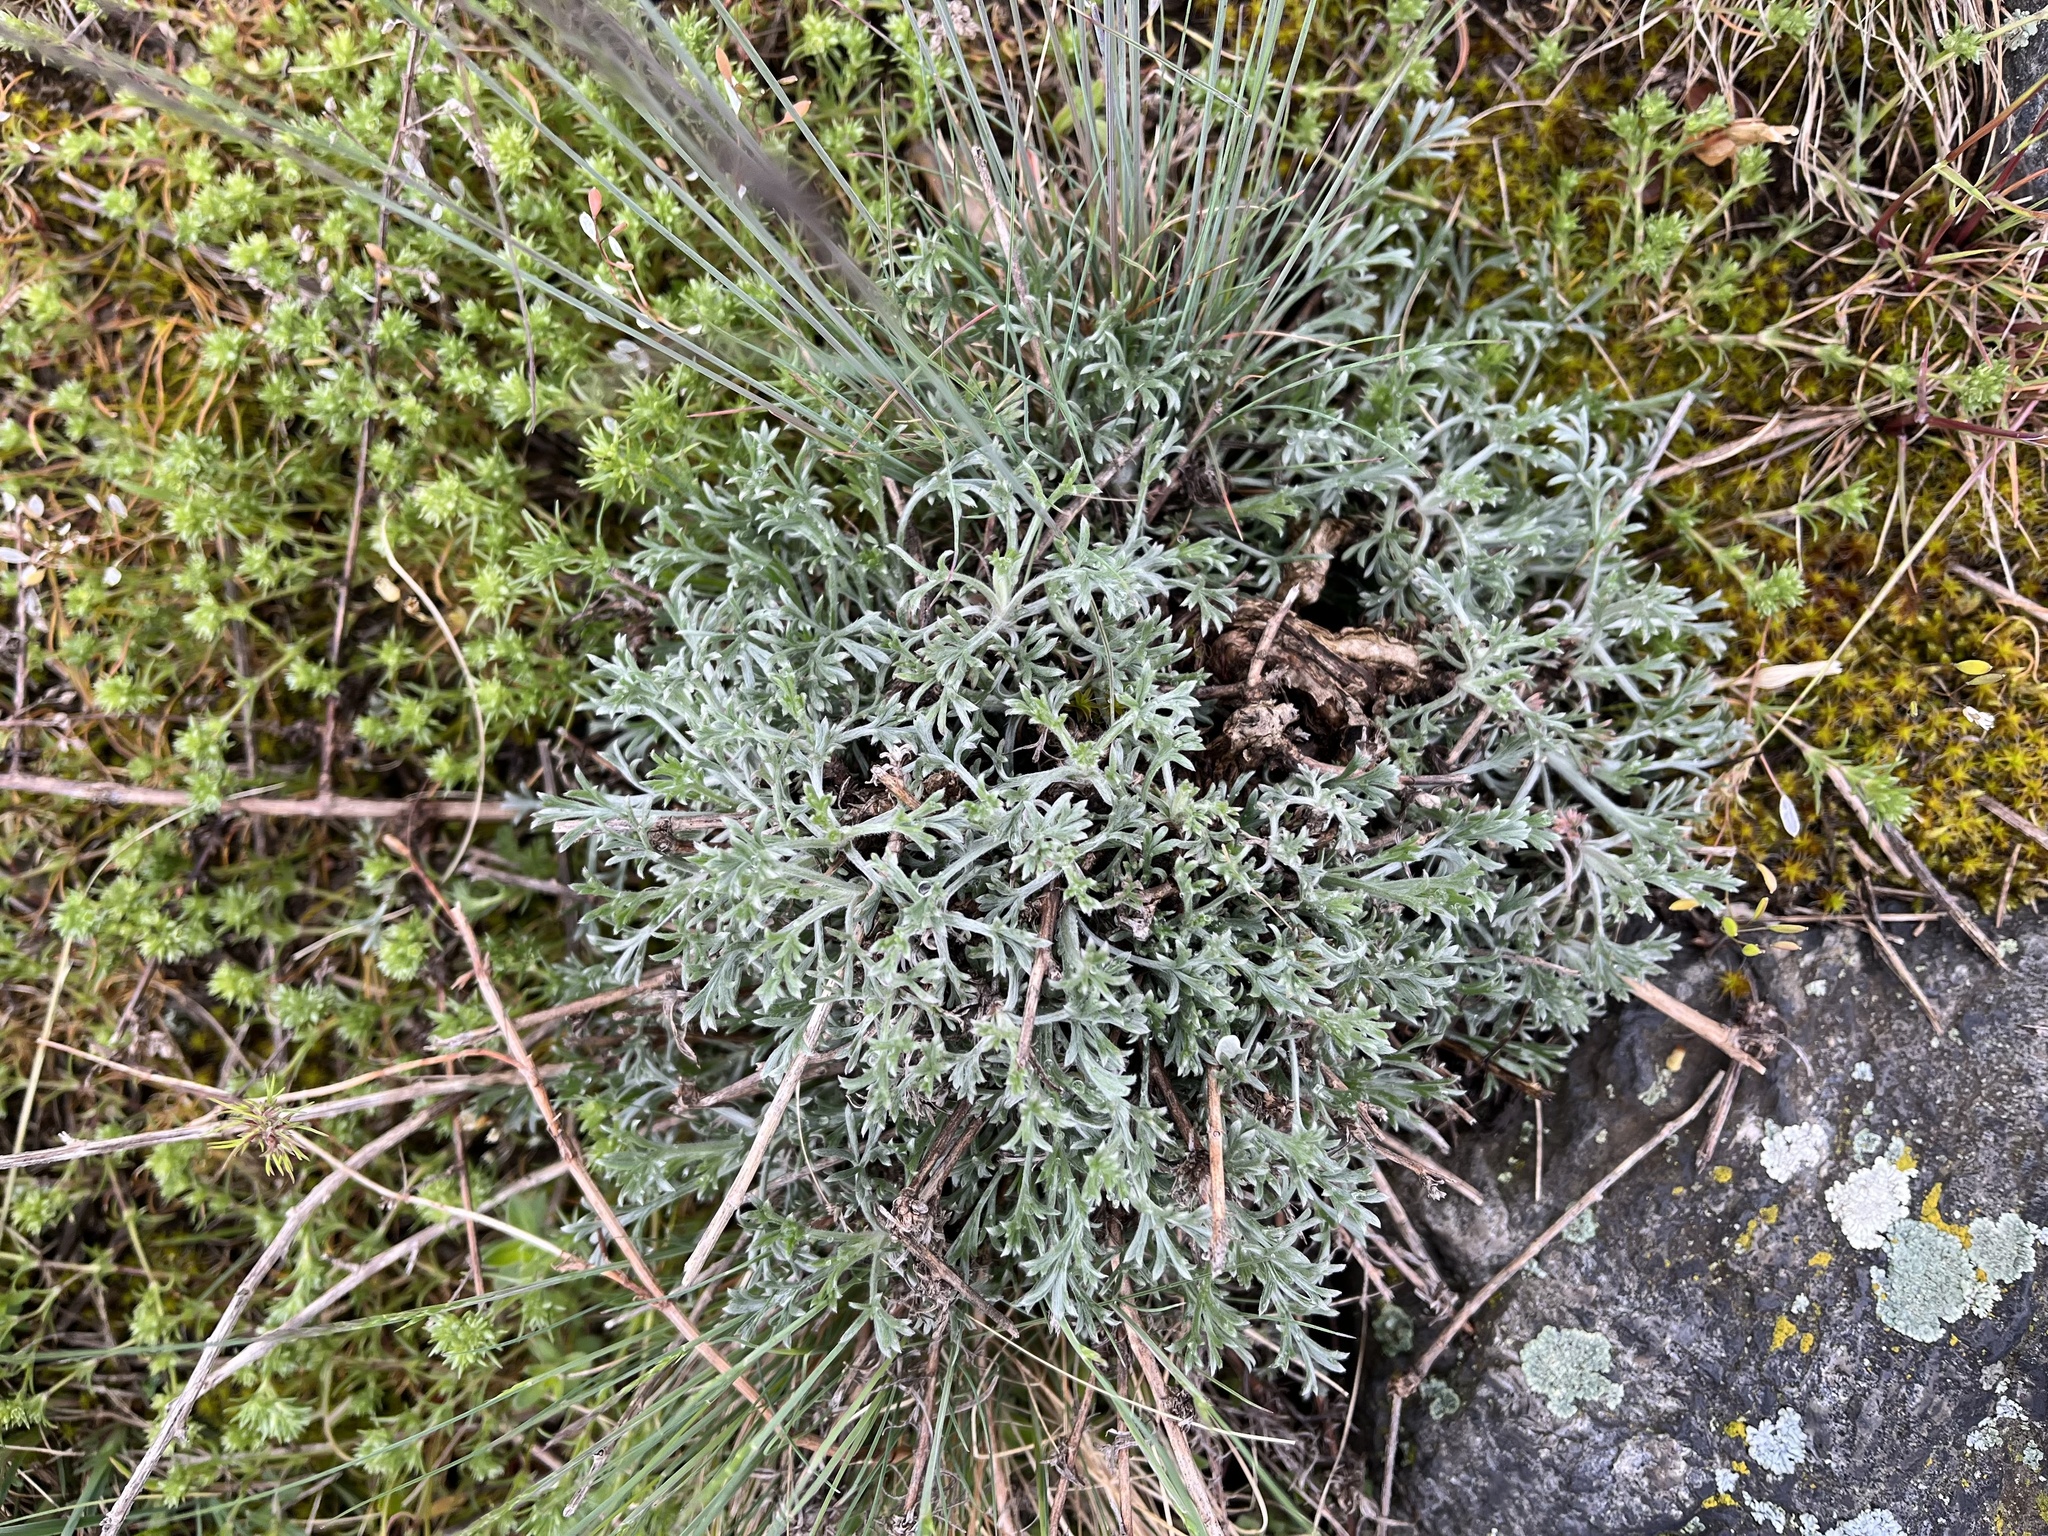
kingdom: Plantae
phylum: Tracheophyta
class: Magnoliopsida
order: Asterales
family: Asteraceae
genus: Artemisia
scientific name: Artemisia campestris
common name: Field wormwood
